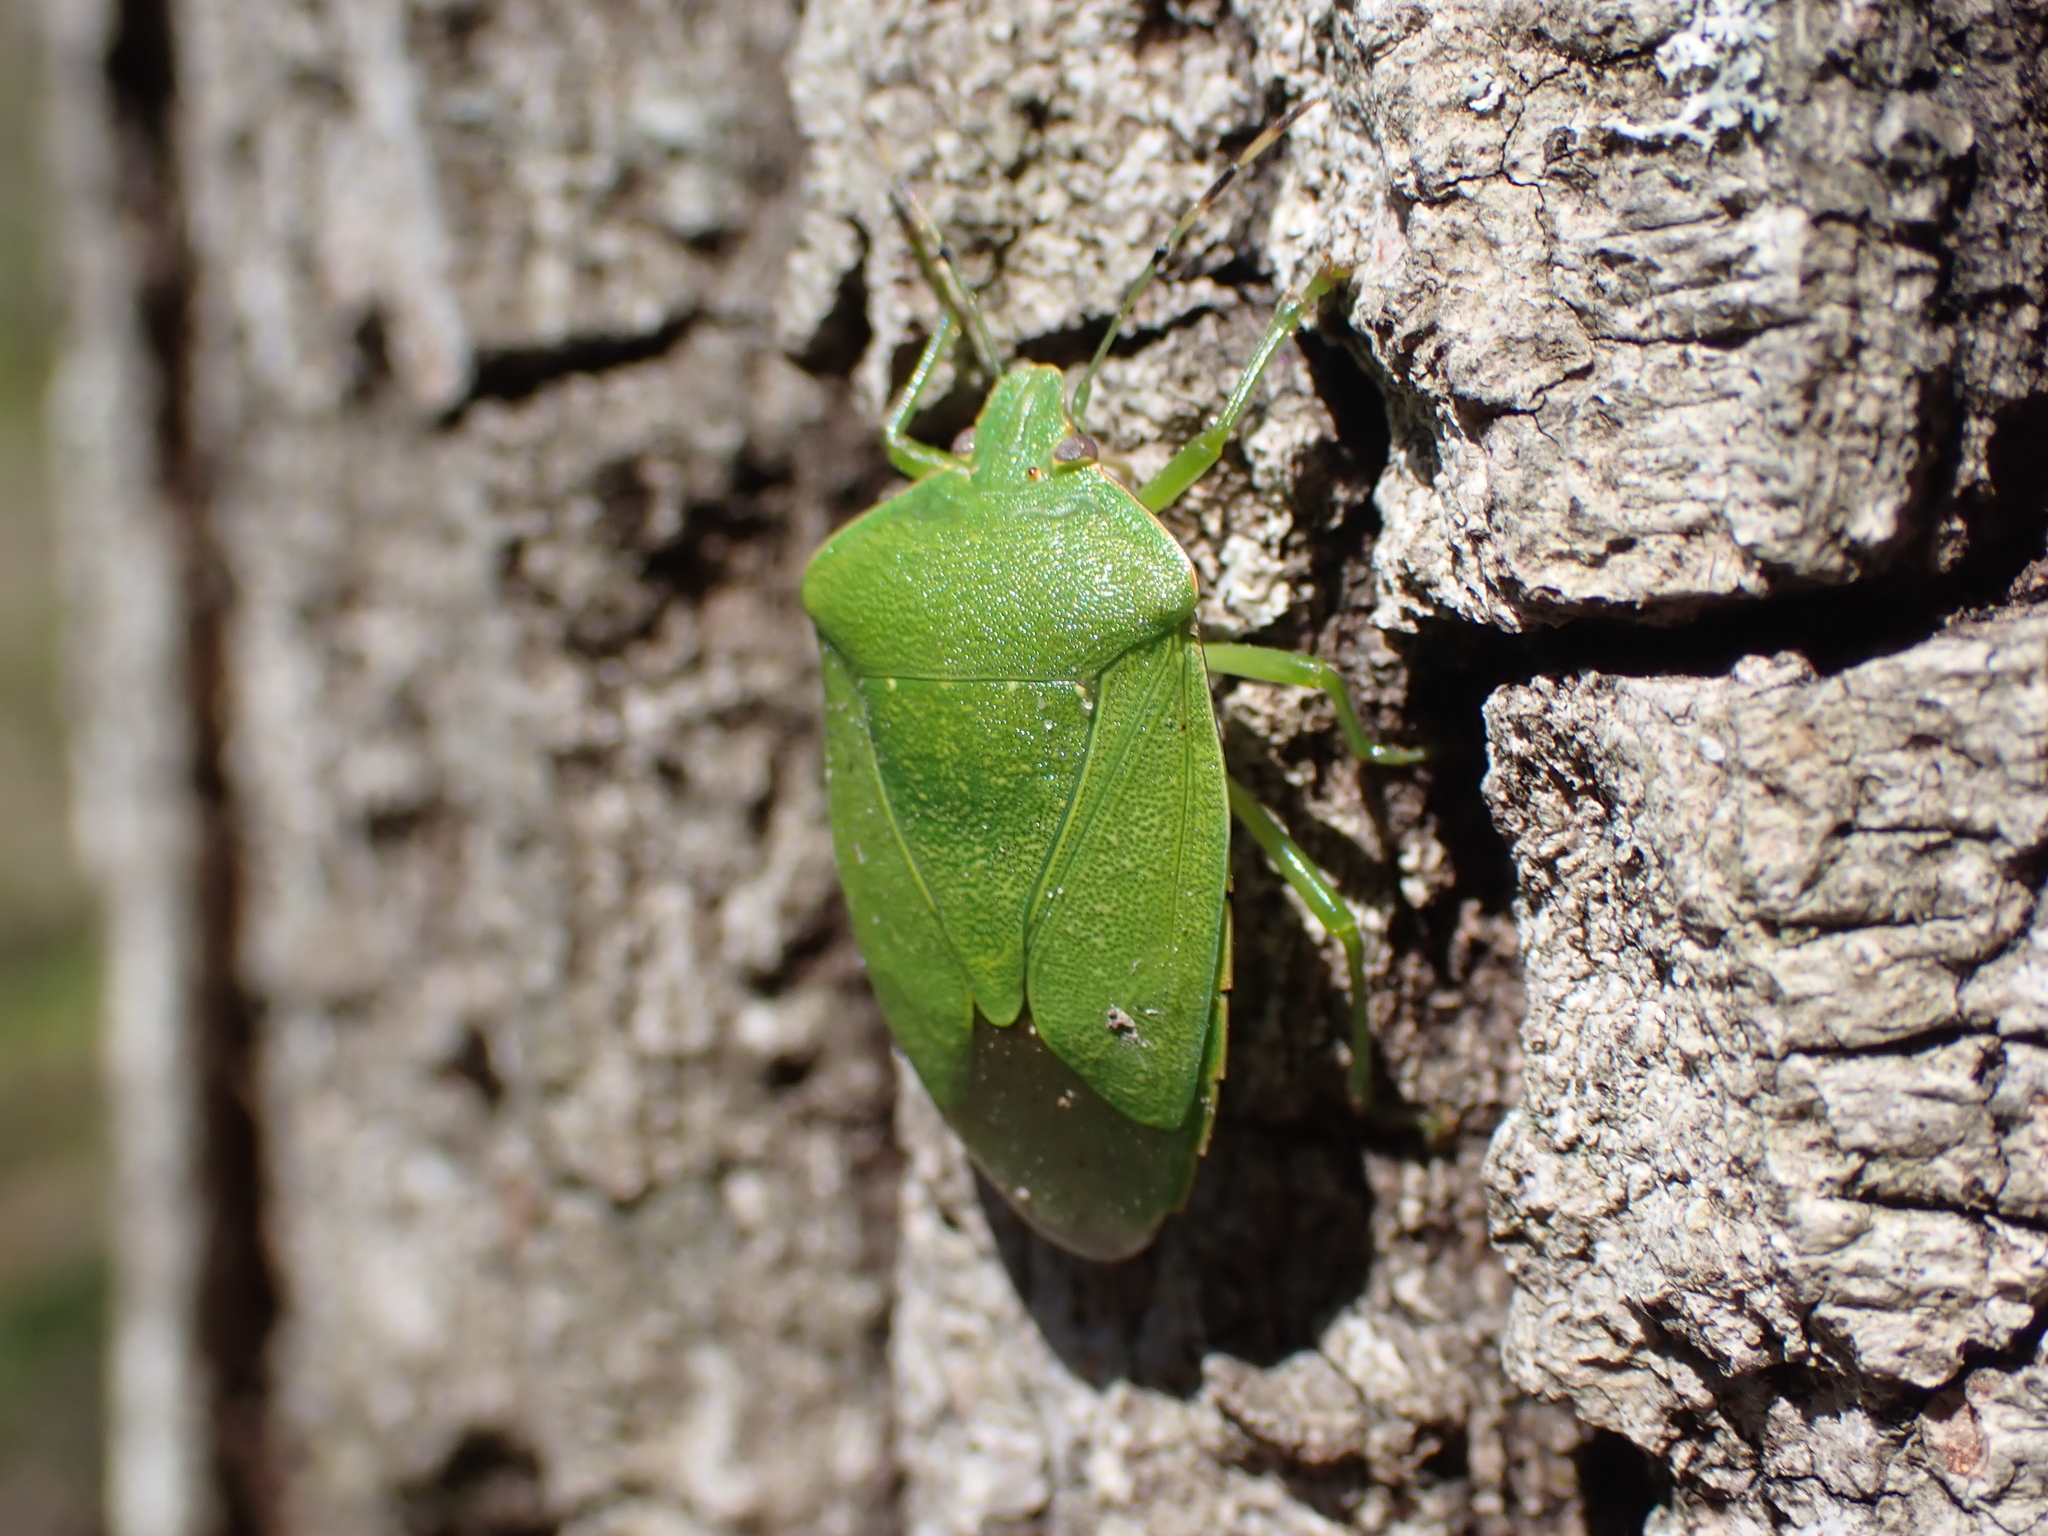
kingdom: Animalia
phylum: Arthropoda
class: Insecta
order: Hemiptera
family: Pentatomidae
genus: Chinavia
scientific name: Chinavia hilaris
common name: Green stink bug
